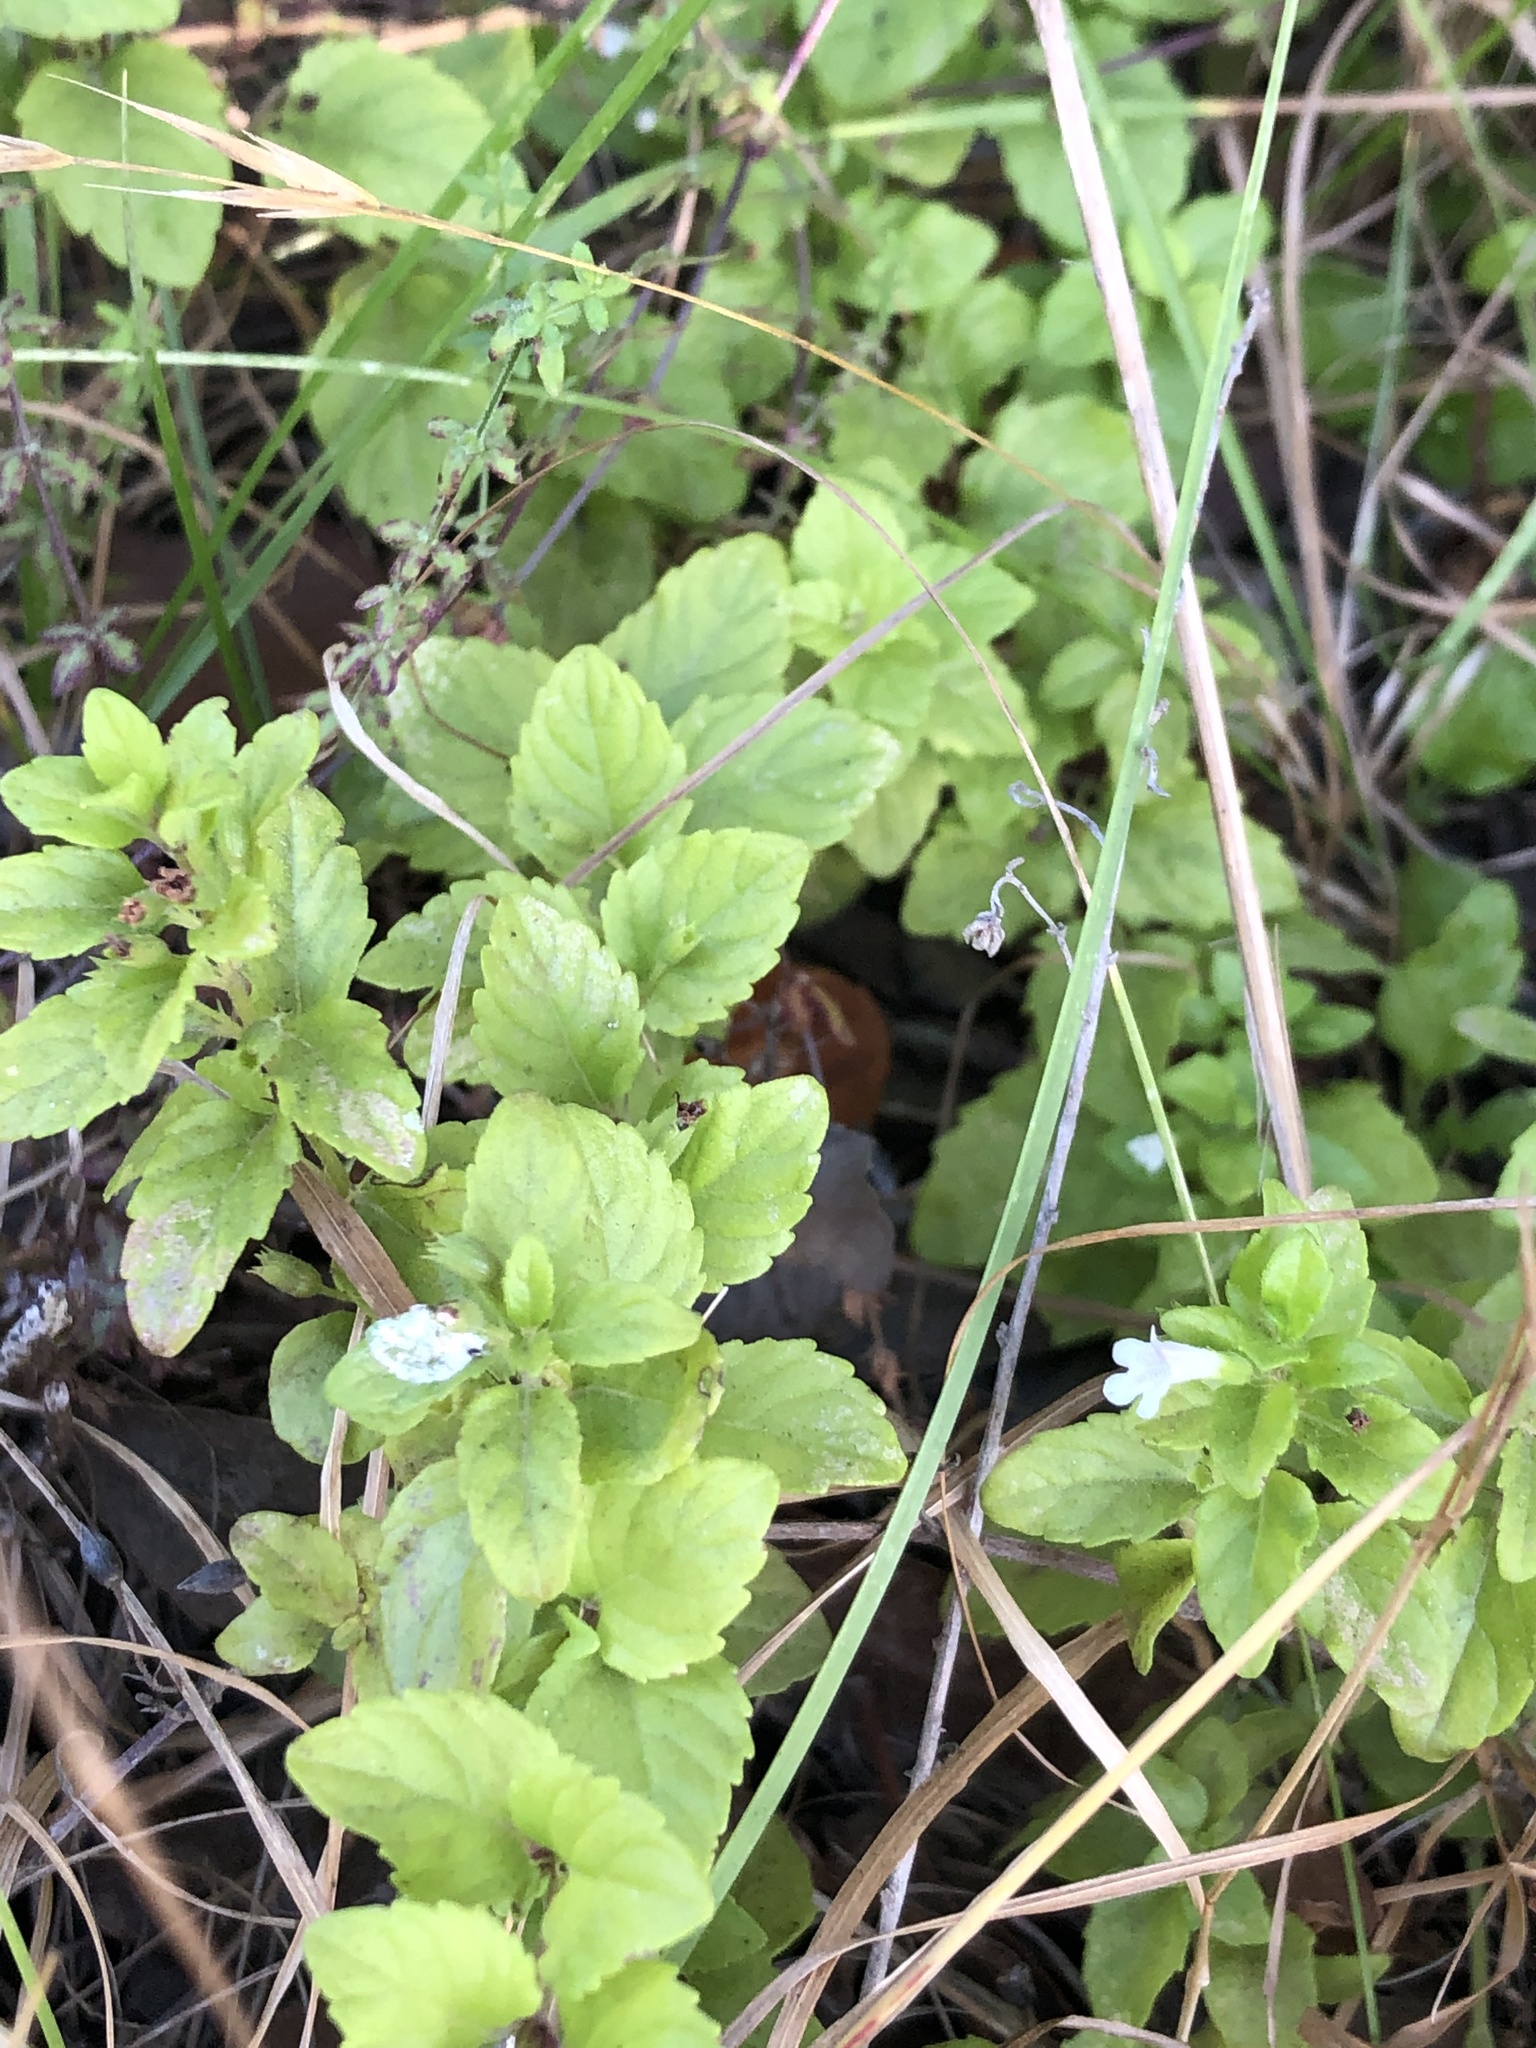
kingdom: Plantae
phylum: Tracheophyta
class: Magnoliopsida
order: Lamiales
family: Lamiaceae
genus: Micromeria
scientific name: Micromeria douglasii
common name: Yerba buena
